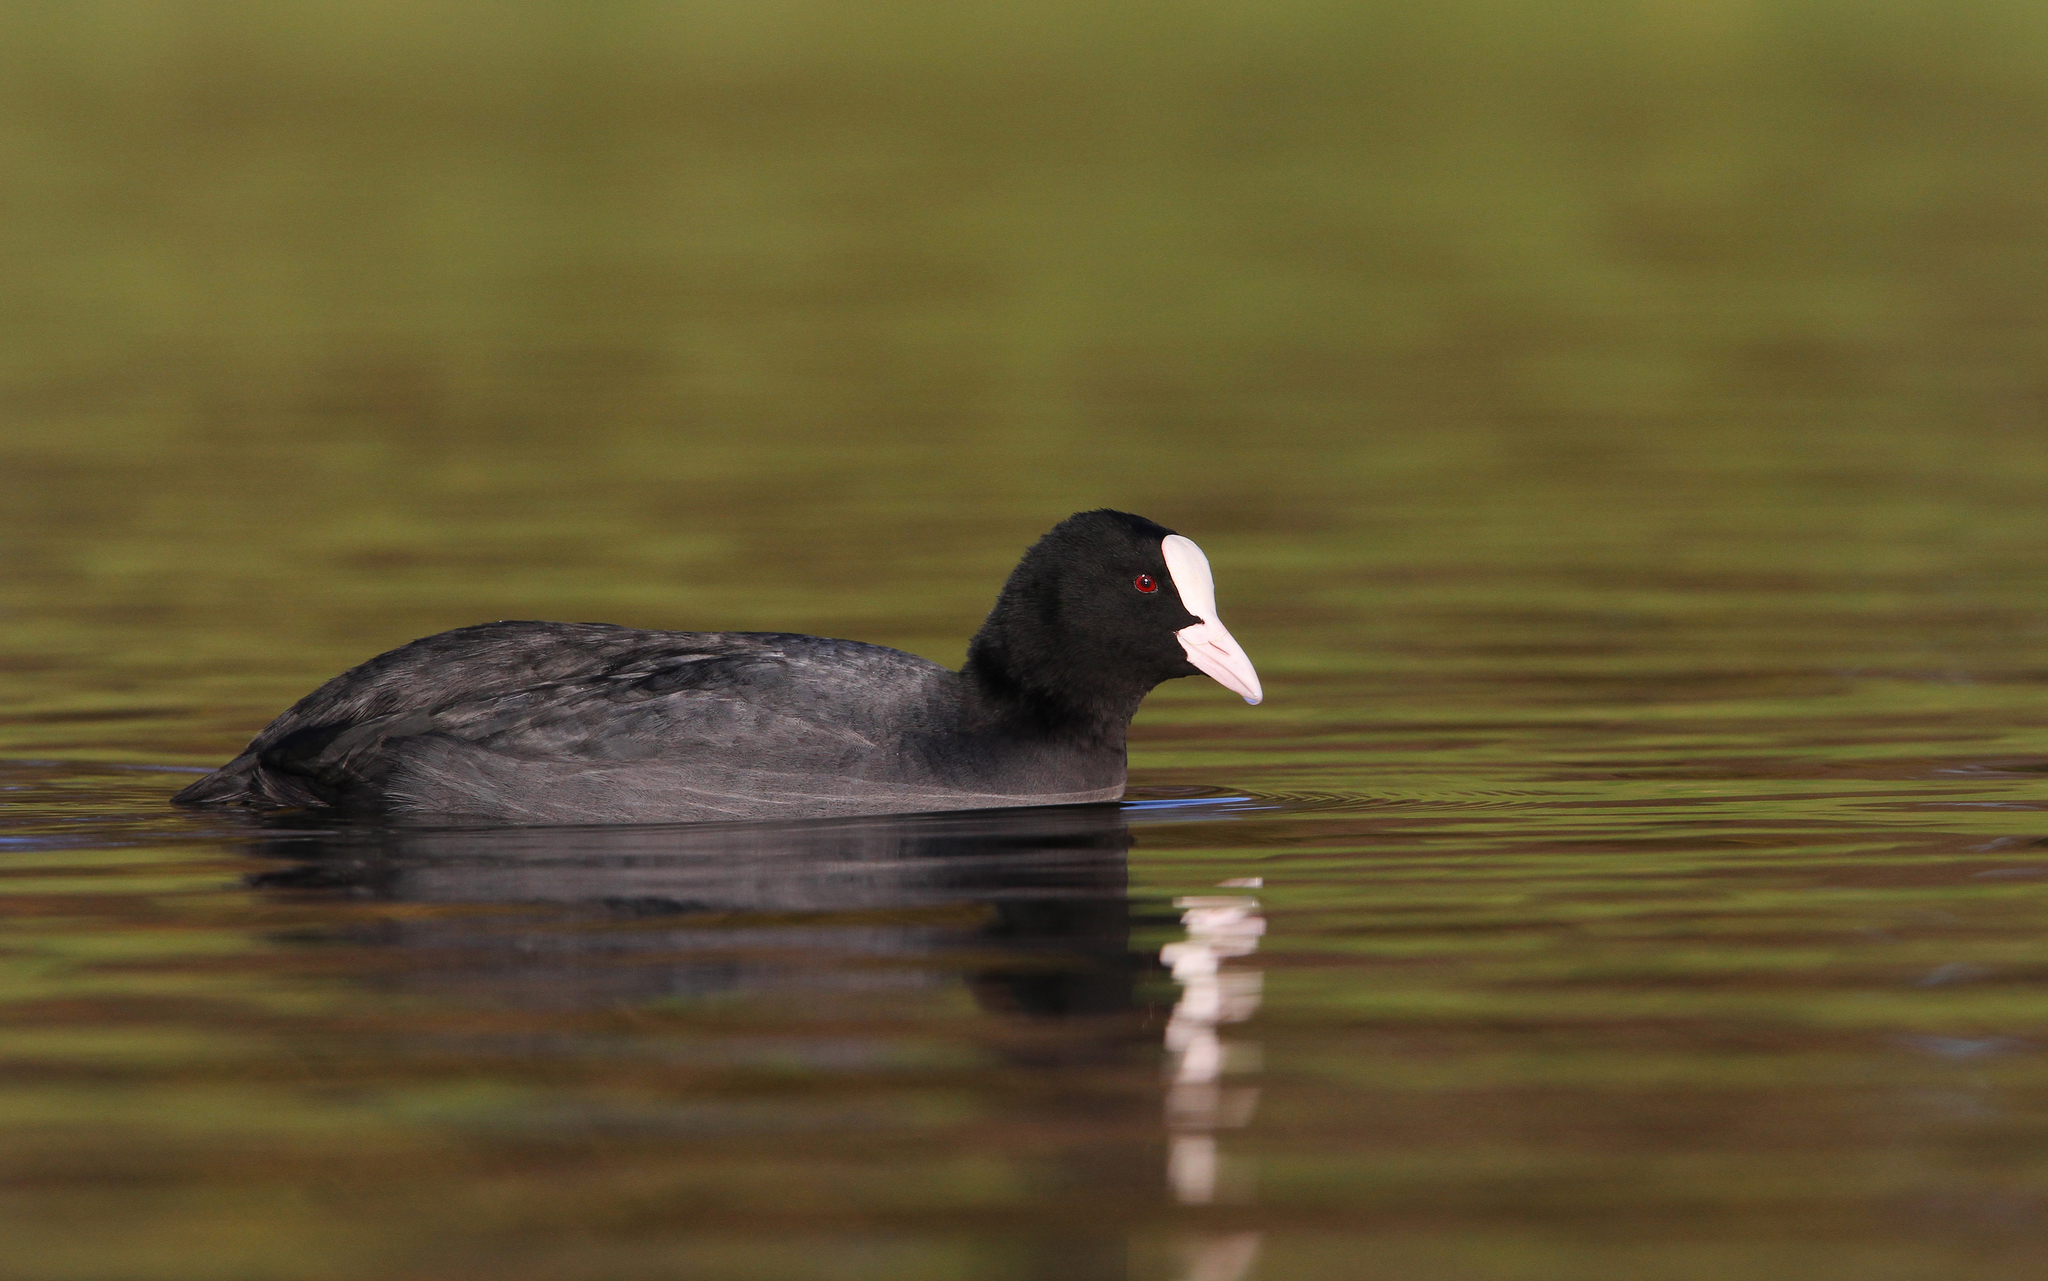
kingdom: Animalia
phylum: Chordata
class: Aves
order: Gruiformes
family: Rallidae
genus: Fulica
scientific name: Fulica atra
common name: Eurasian coot
